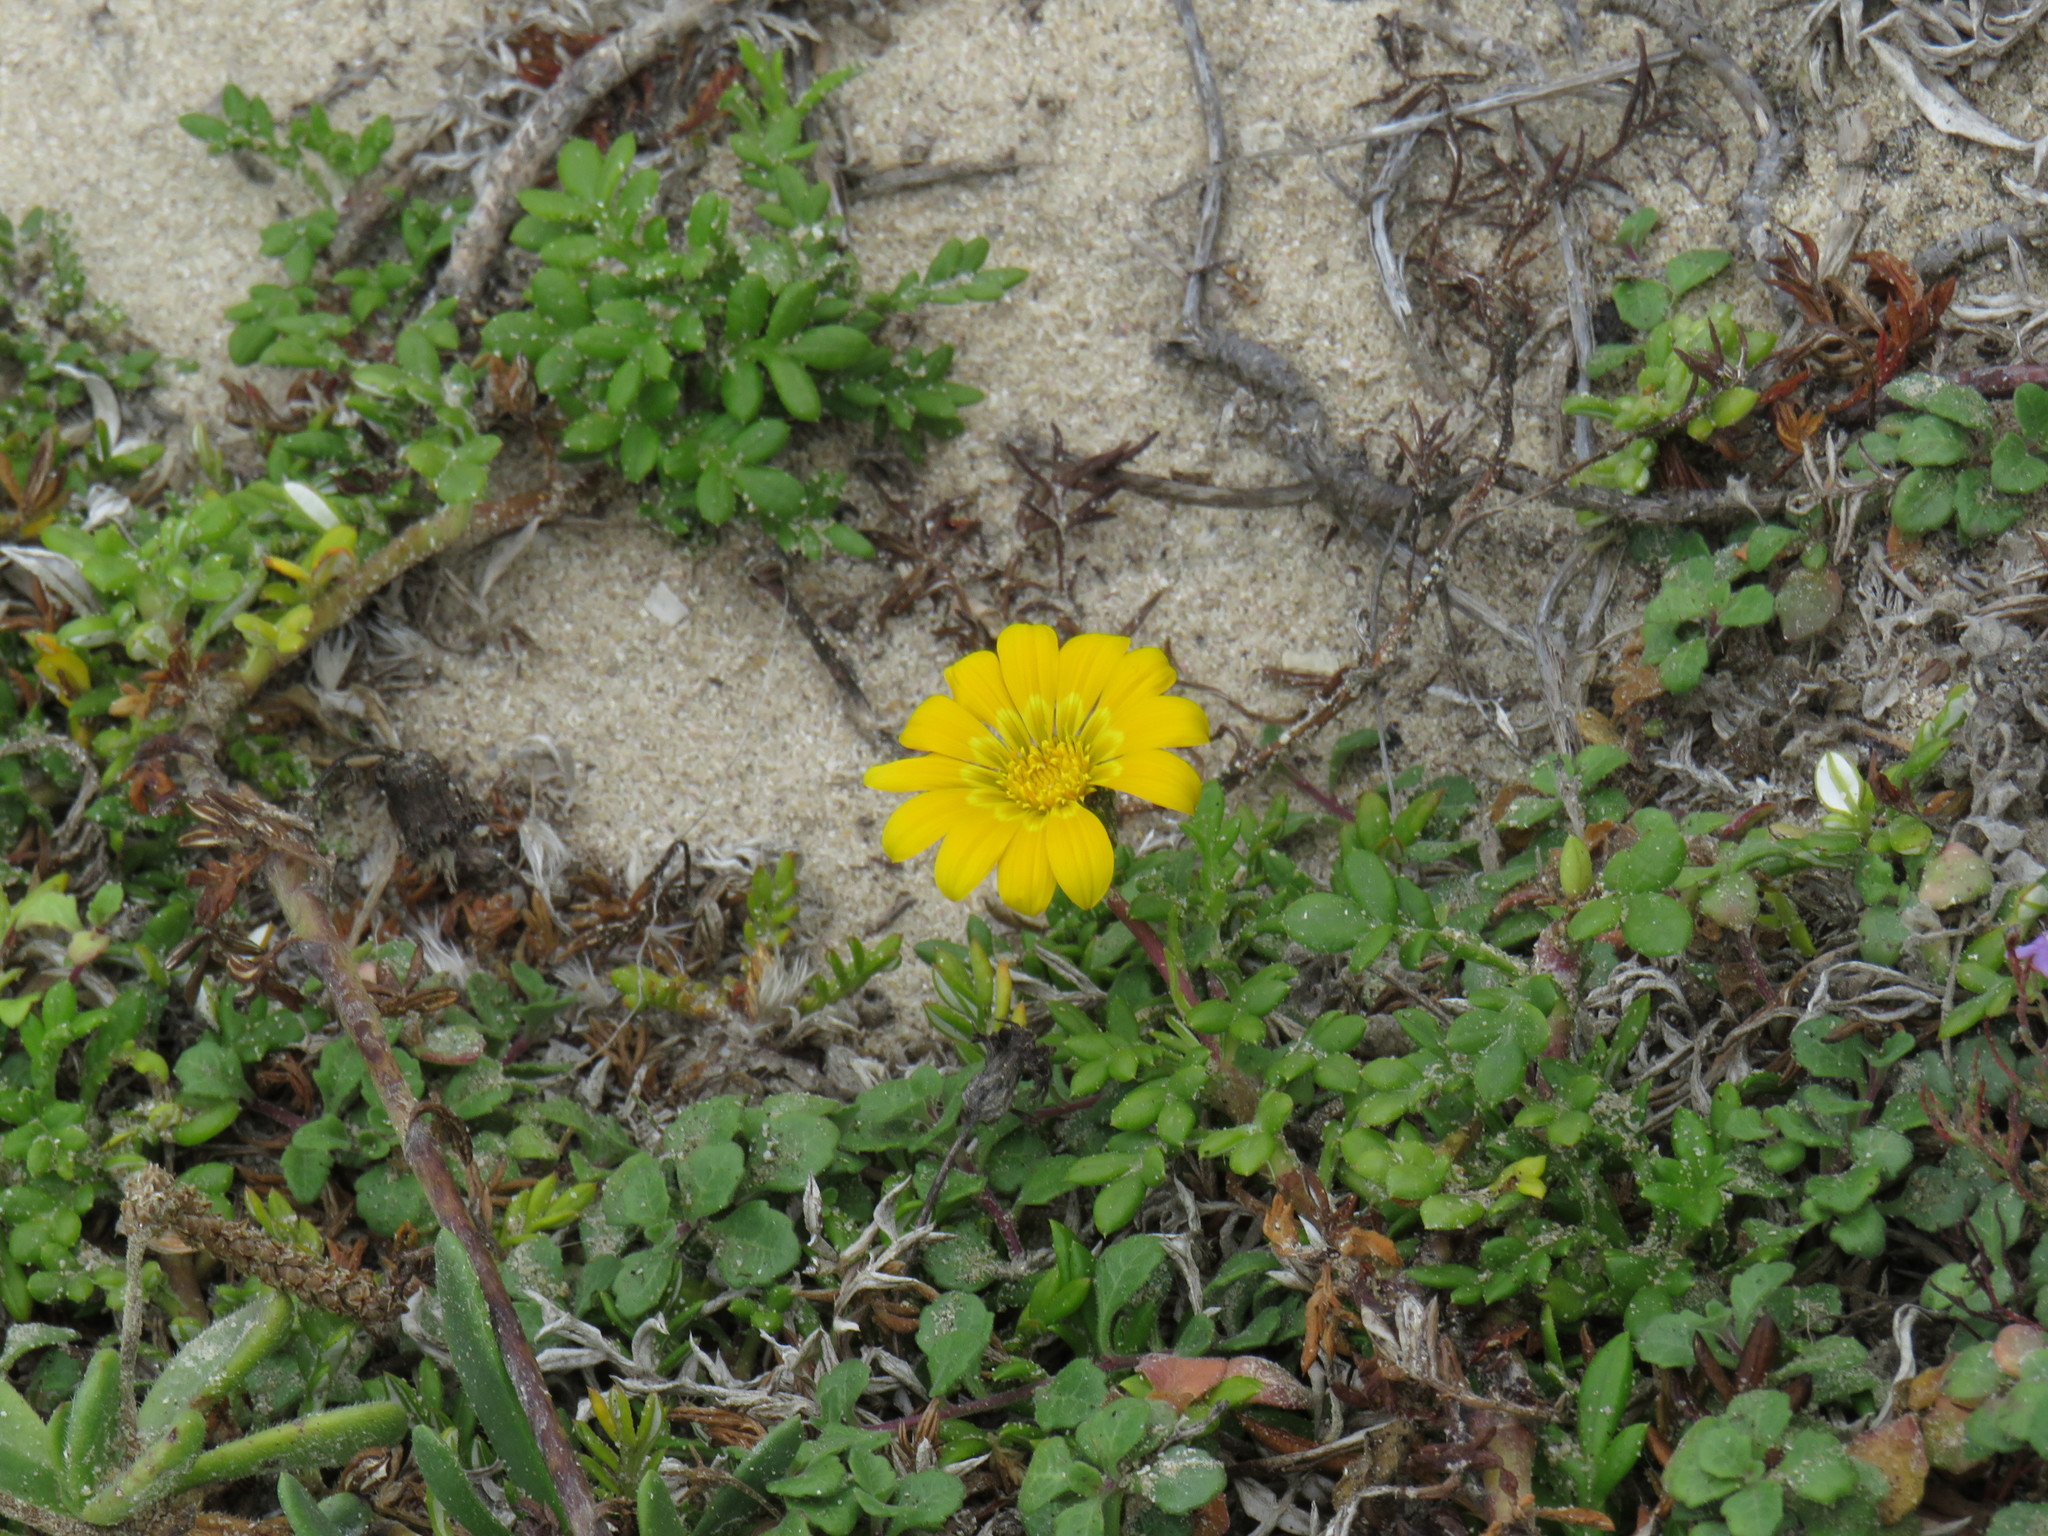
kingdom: Plantae
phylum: Tracheophyta
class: Magnoliopsida
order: Asterales
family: Asteraceae
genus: Gazania
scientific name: Gazania maritima
